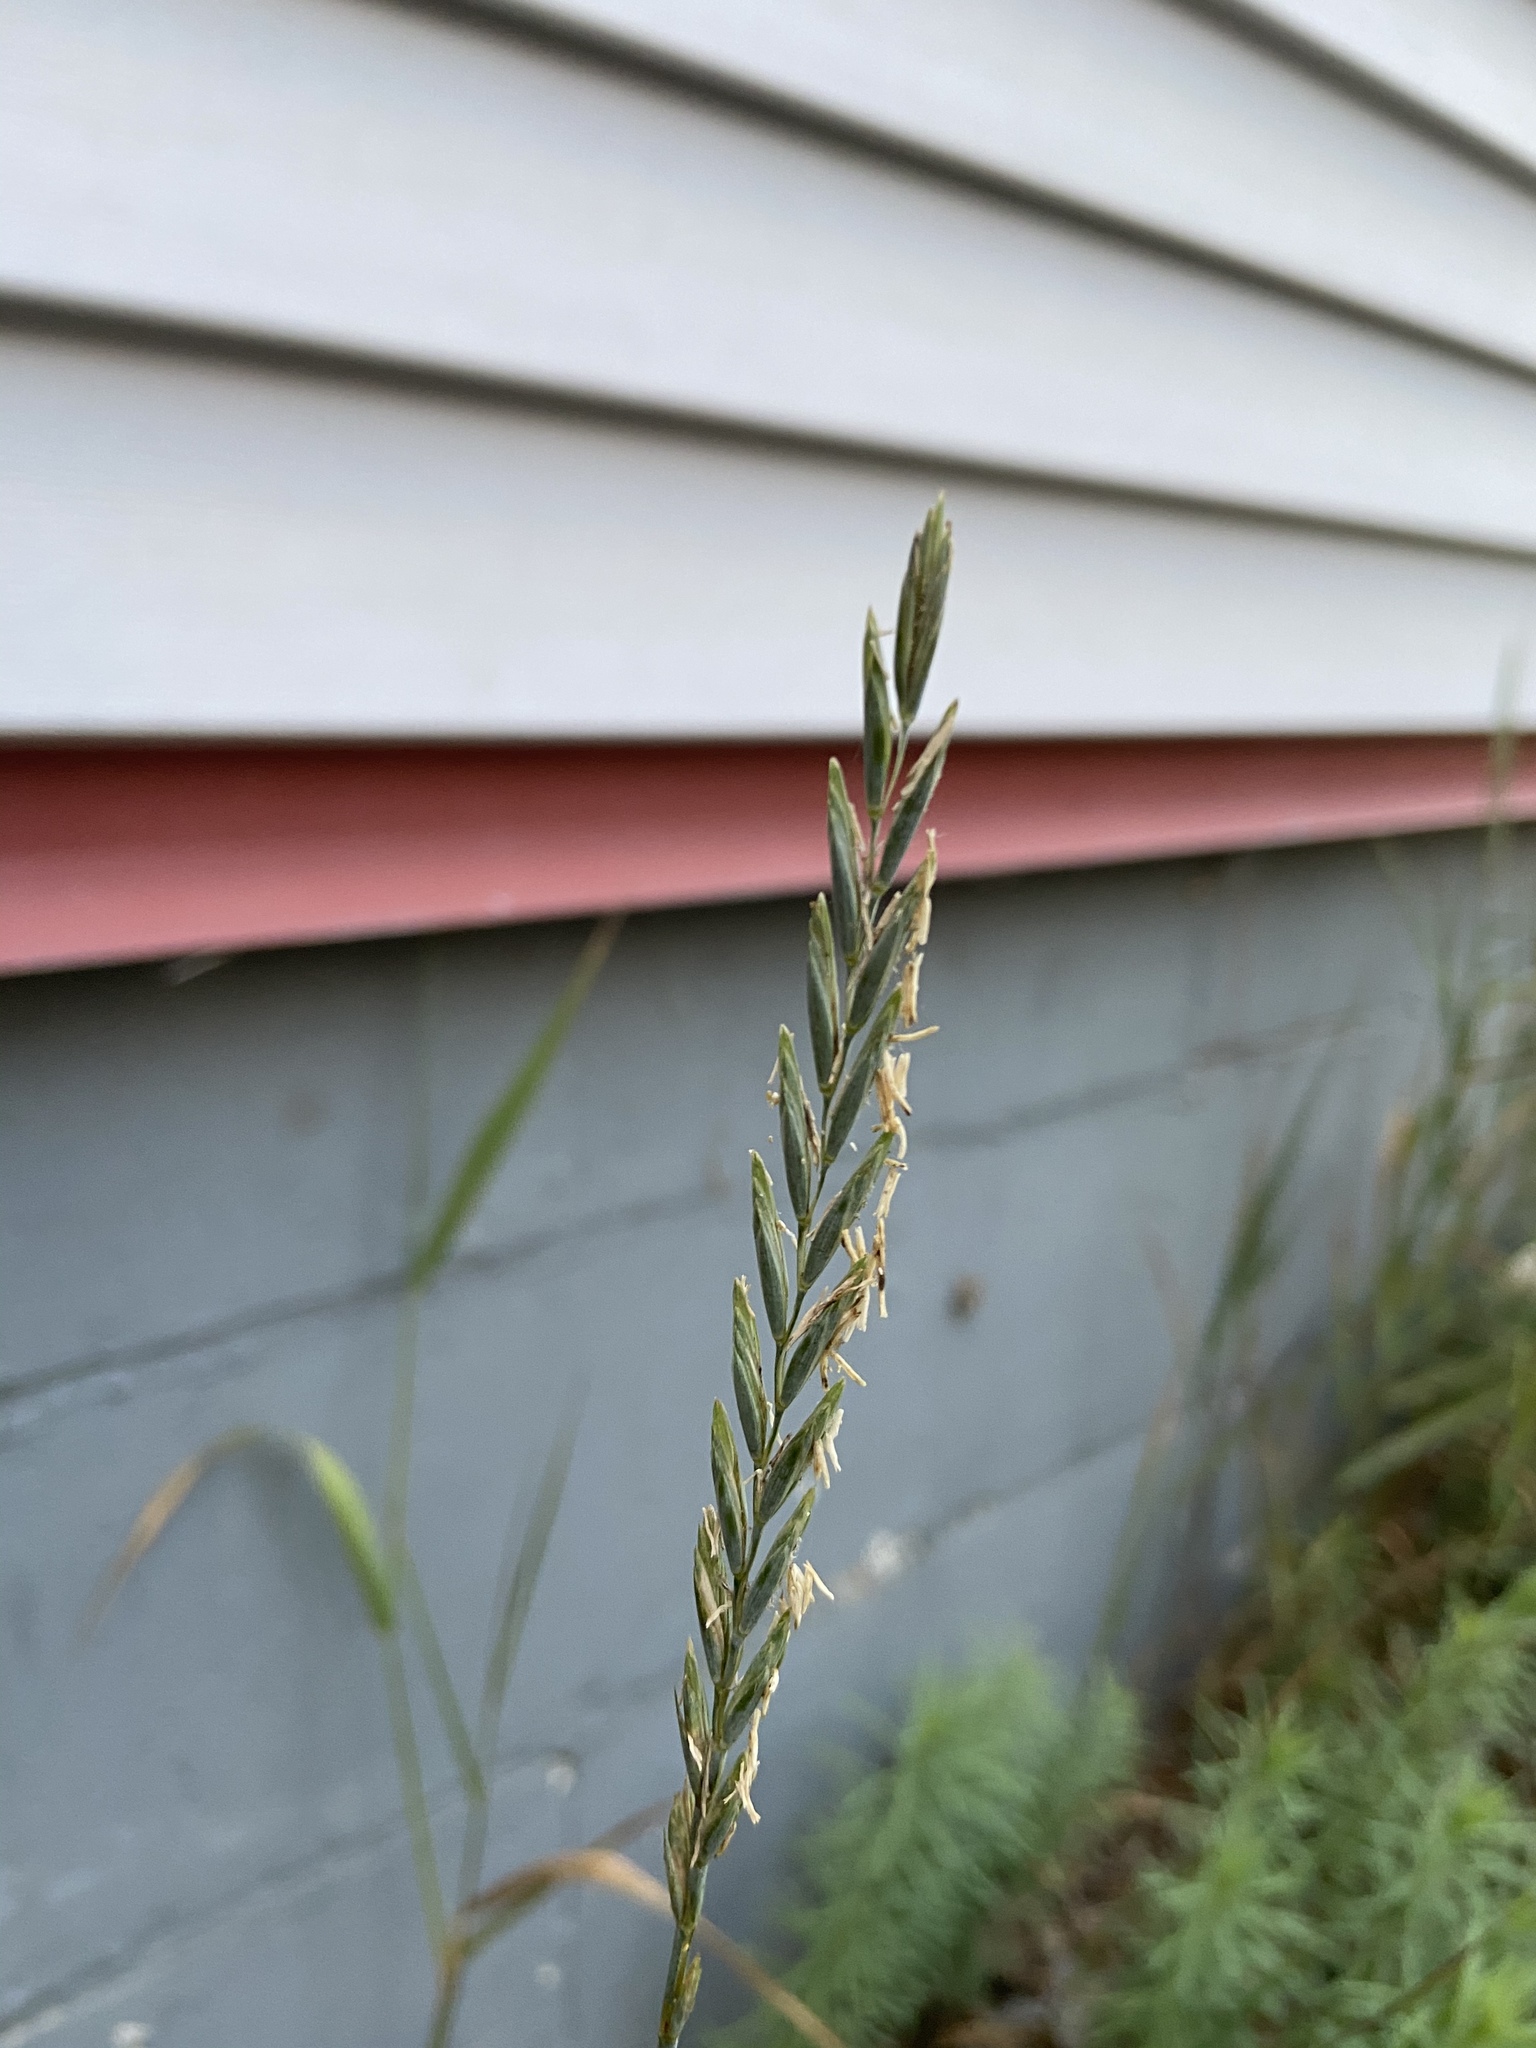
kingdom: Plantae
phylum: Tracheophyta
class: Liliopsida
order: Poales
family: Poaceae
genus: Elymus
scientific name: Elymus repens
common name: Quackgrass
